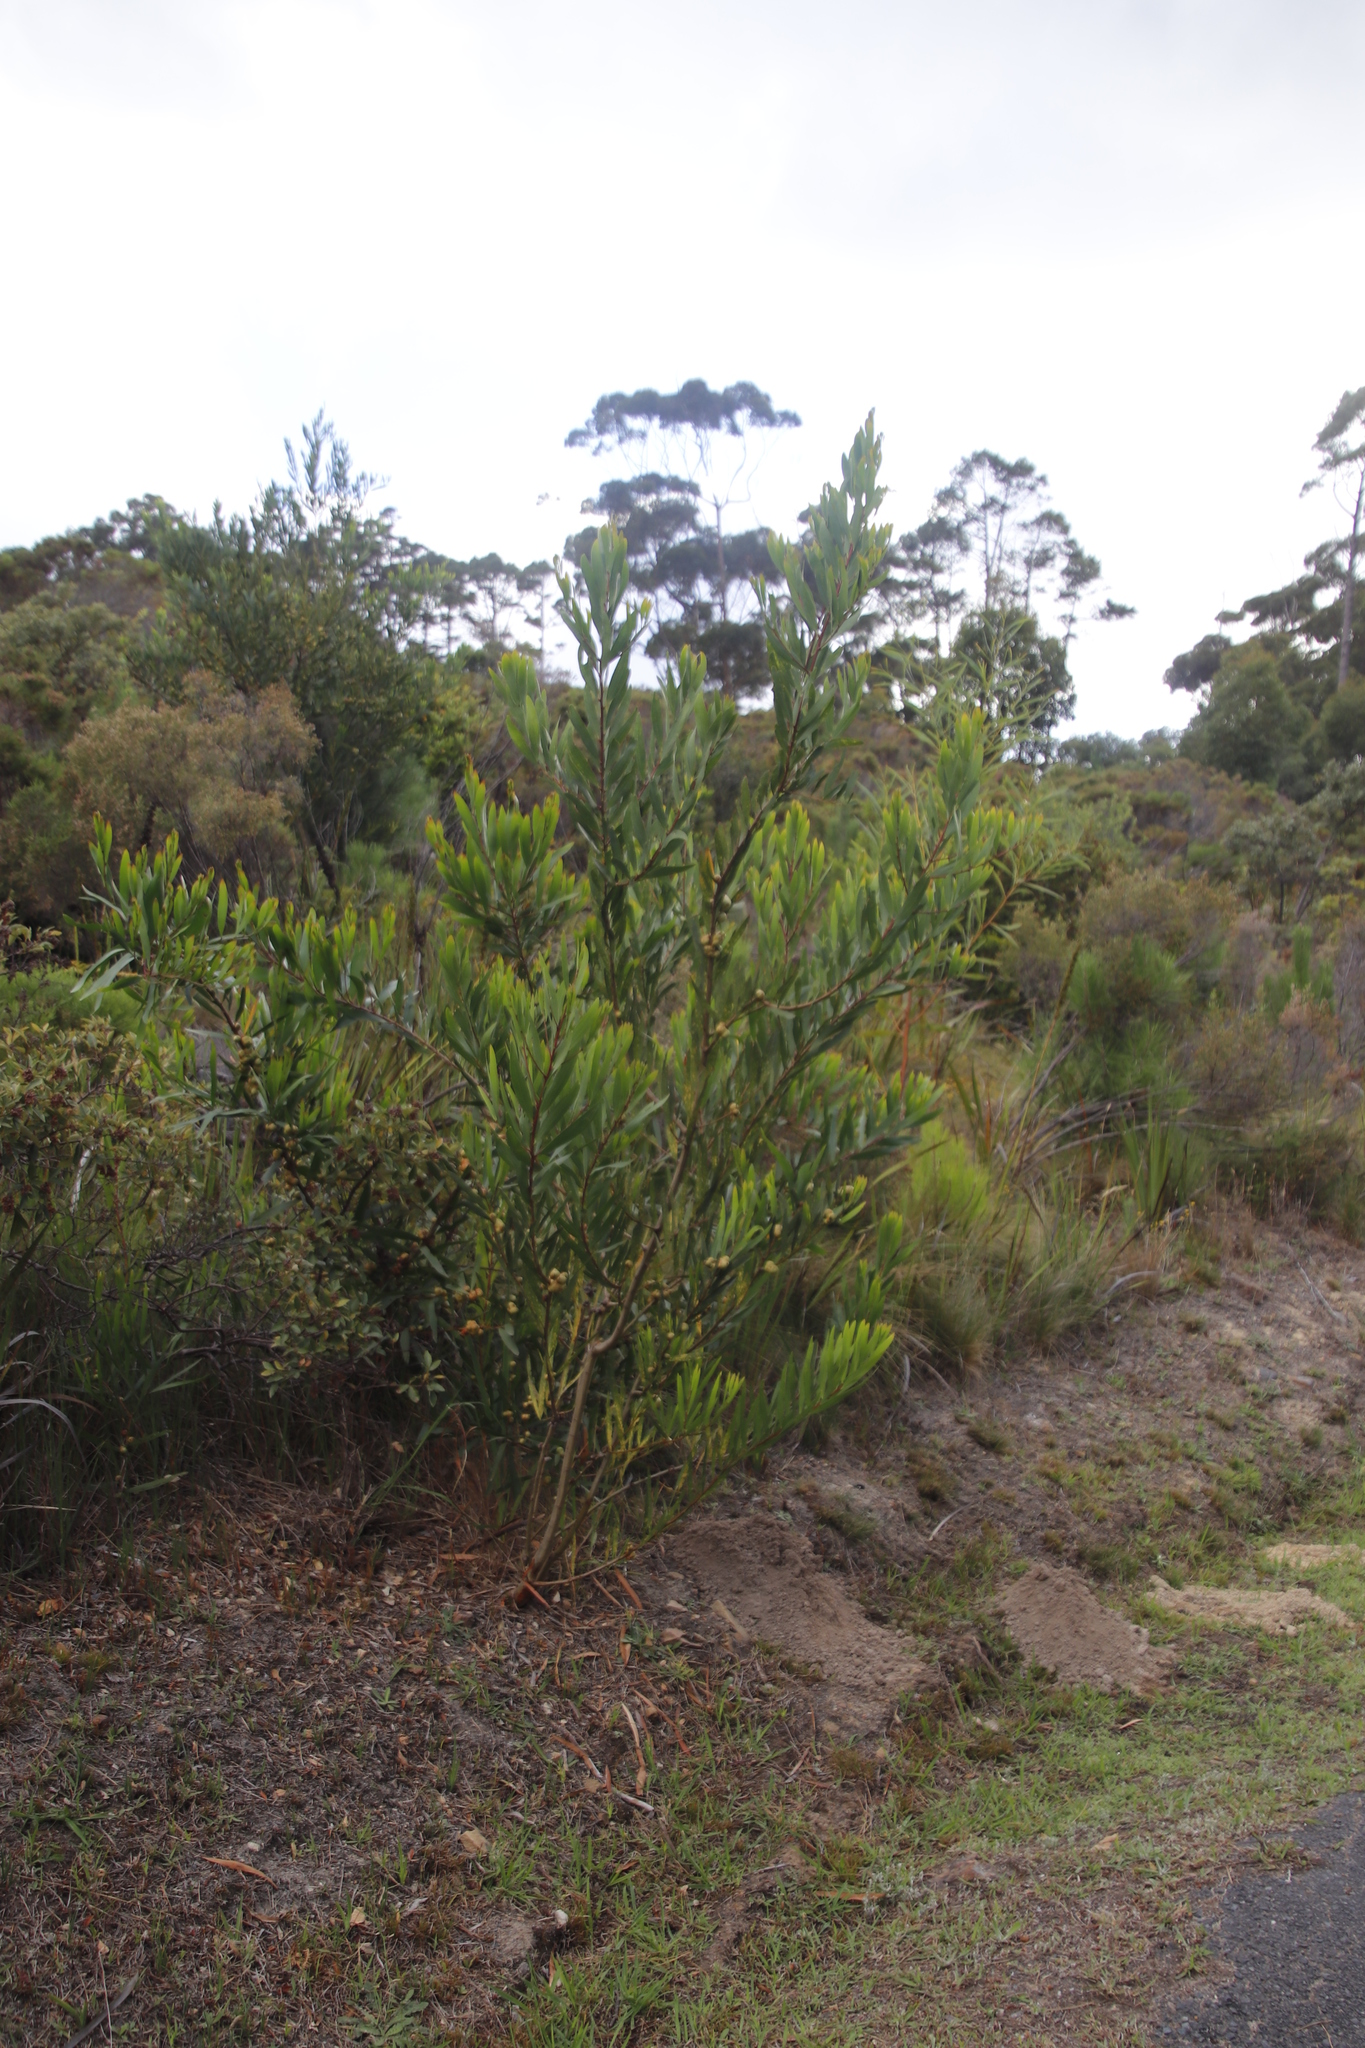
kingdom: Plantae
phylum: Tracheophyta
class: Magnoliopsida
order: Fabales
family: Fabaceae
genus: Acacia
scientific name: Acacia longifolia
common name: Sydney golden wattle
